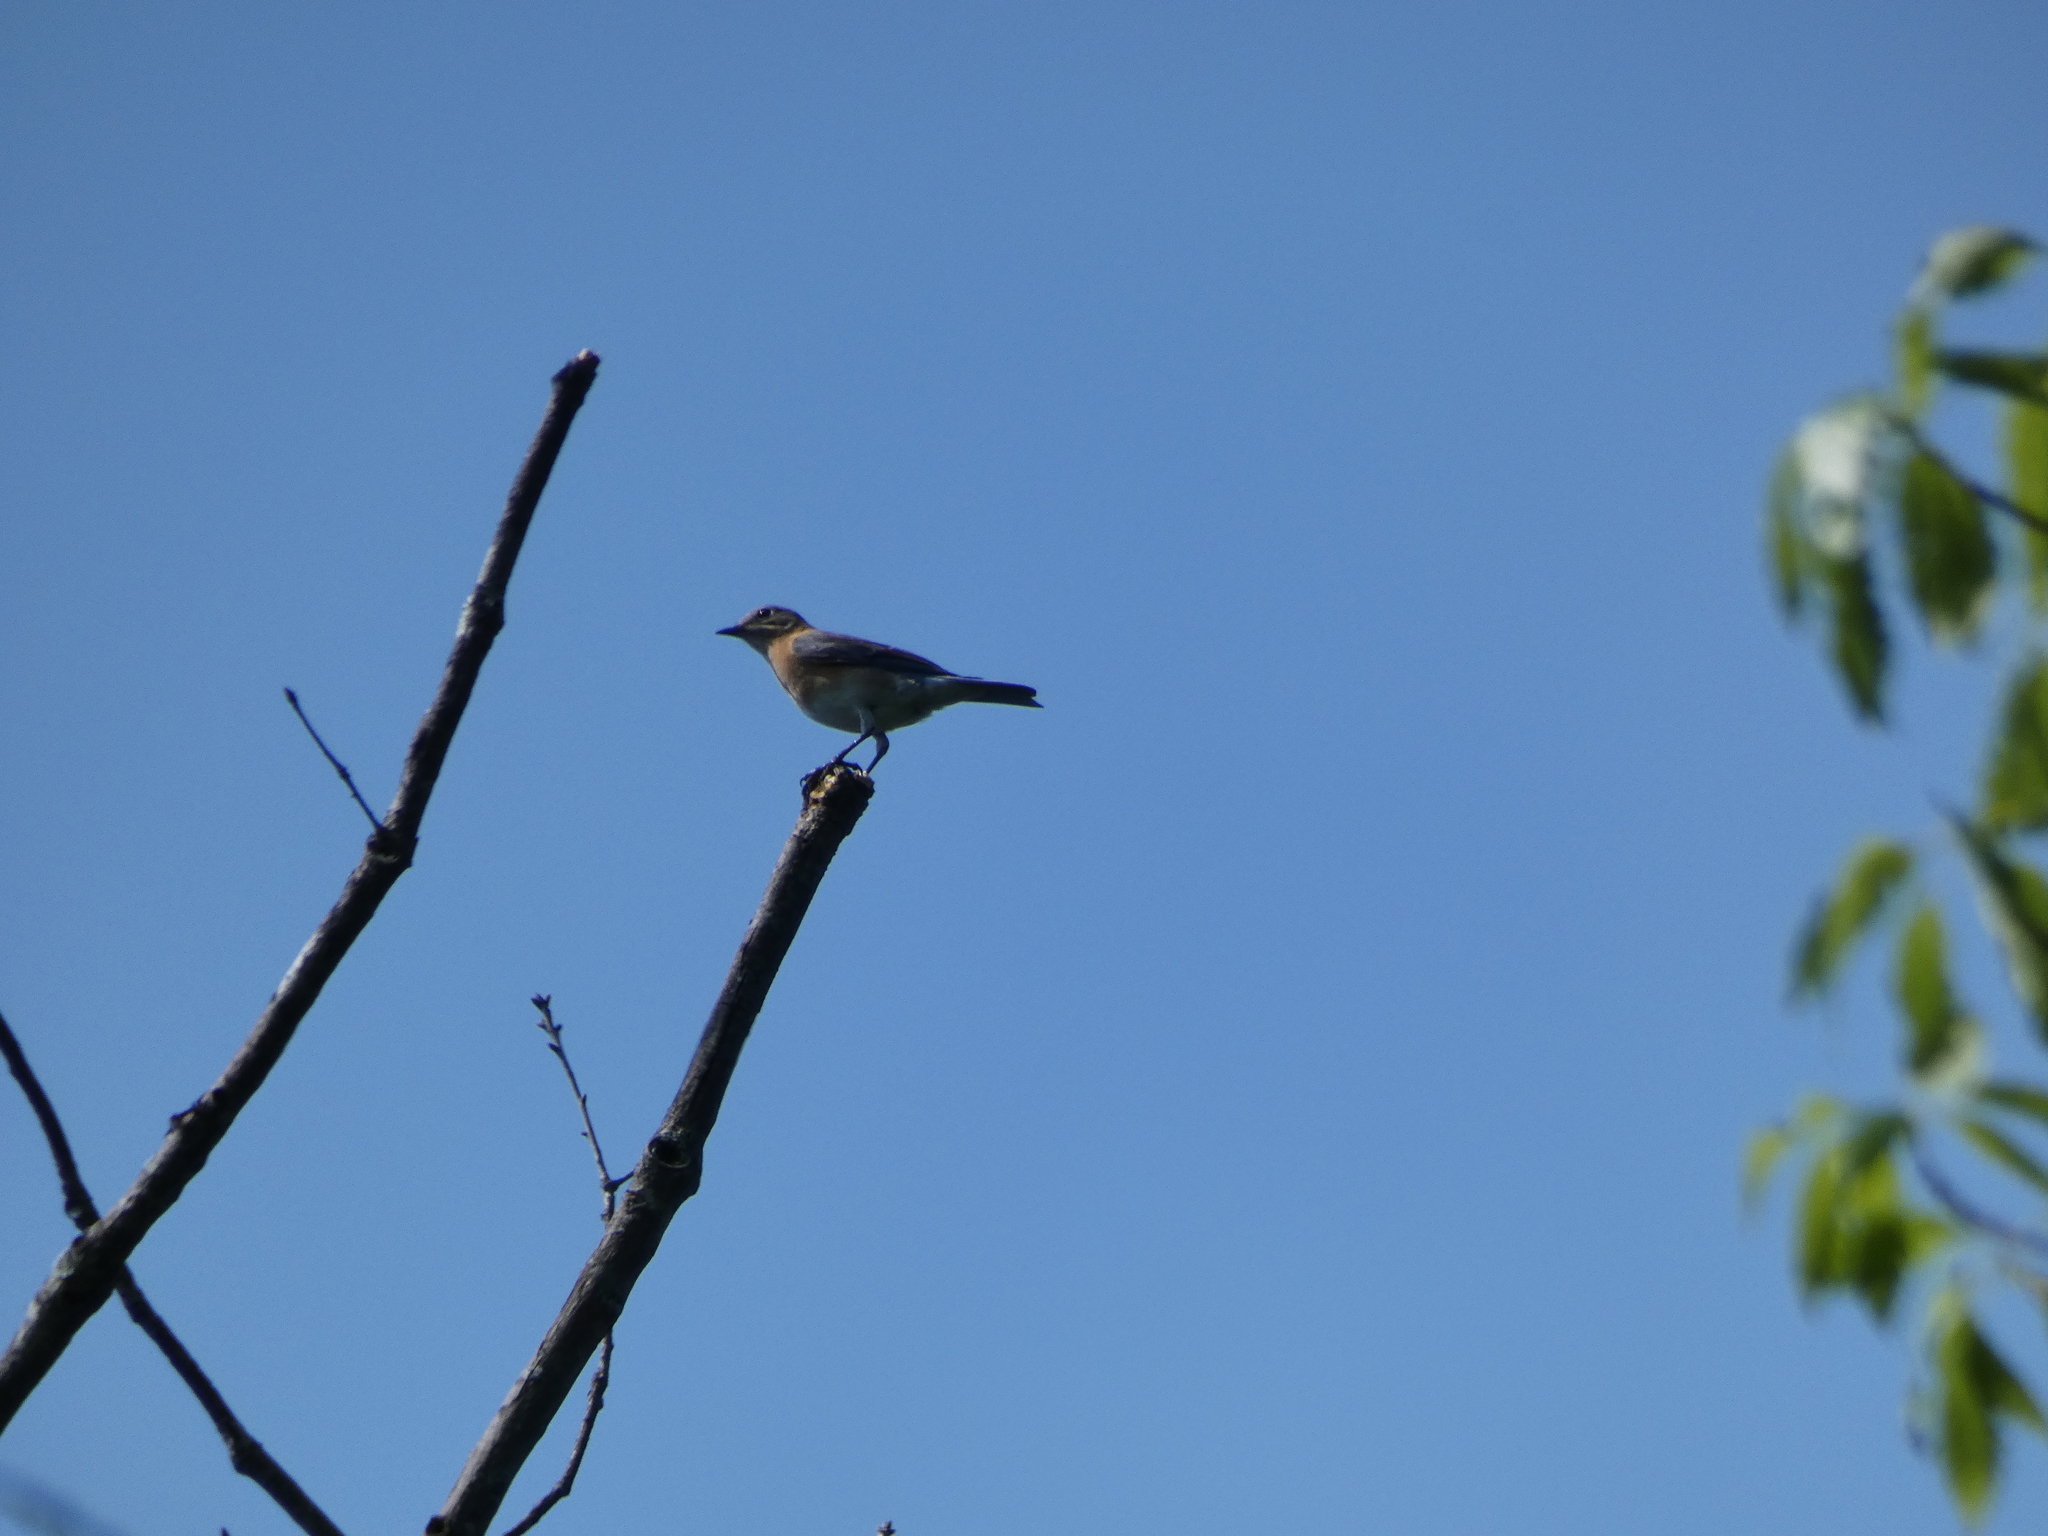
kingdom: Animalia
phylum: Chordata
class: Aves
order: Passeriformes
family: Turdidae
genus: Sialia
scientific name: Sialia sialis
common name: Eastern bluebird
